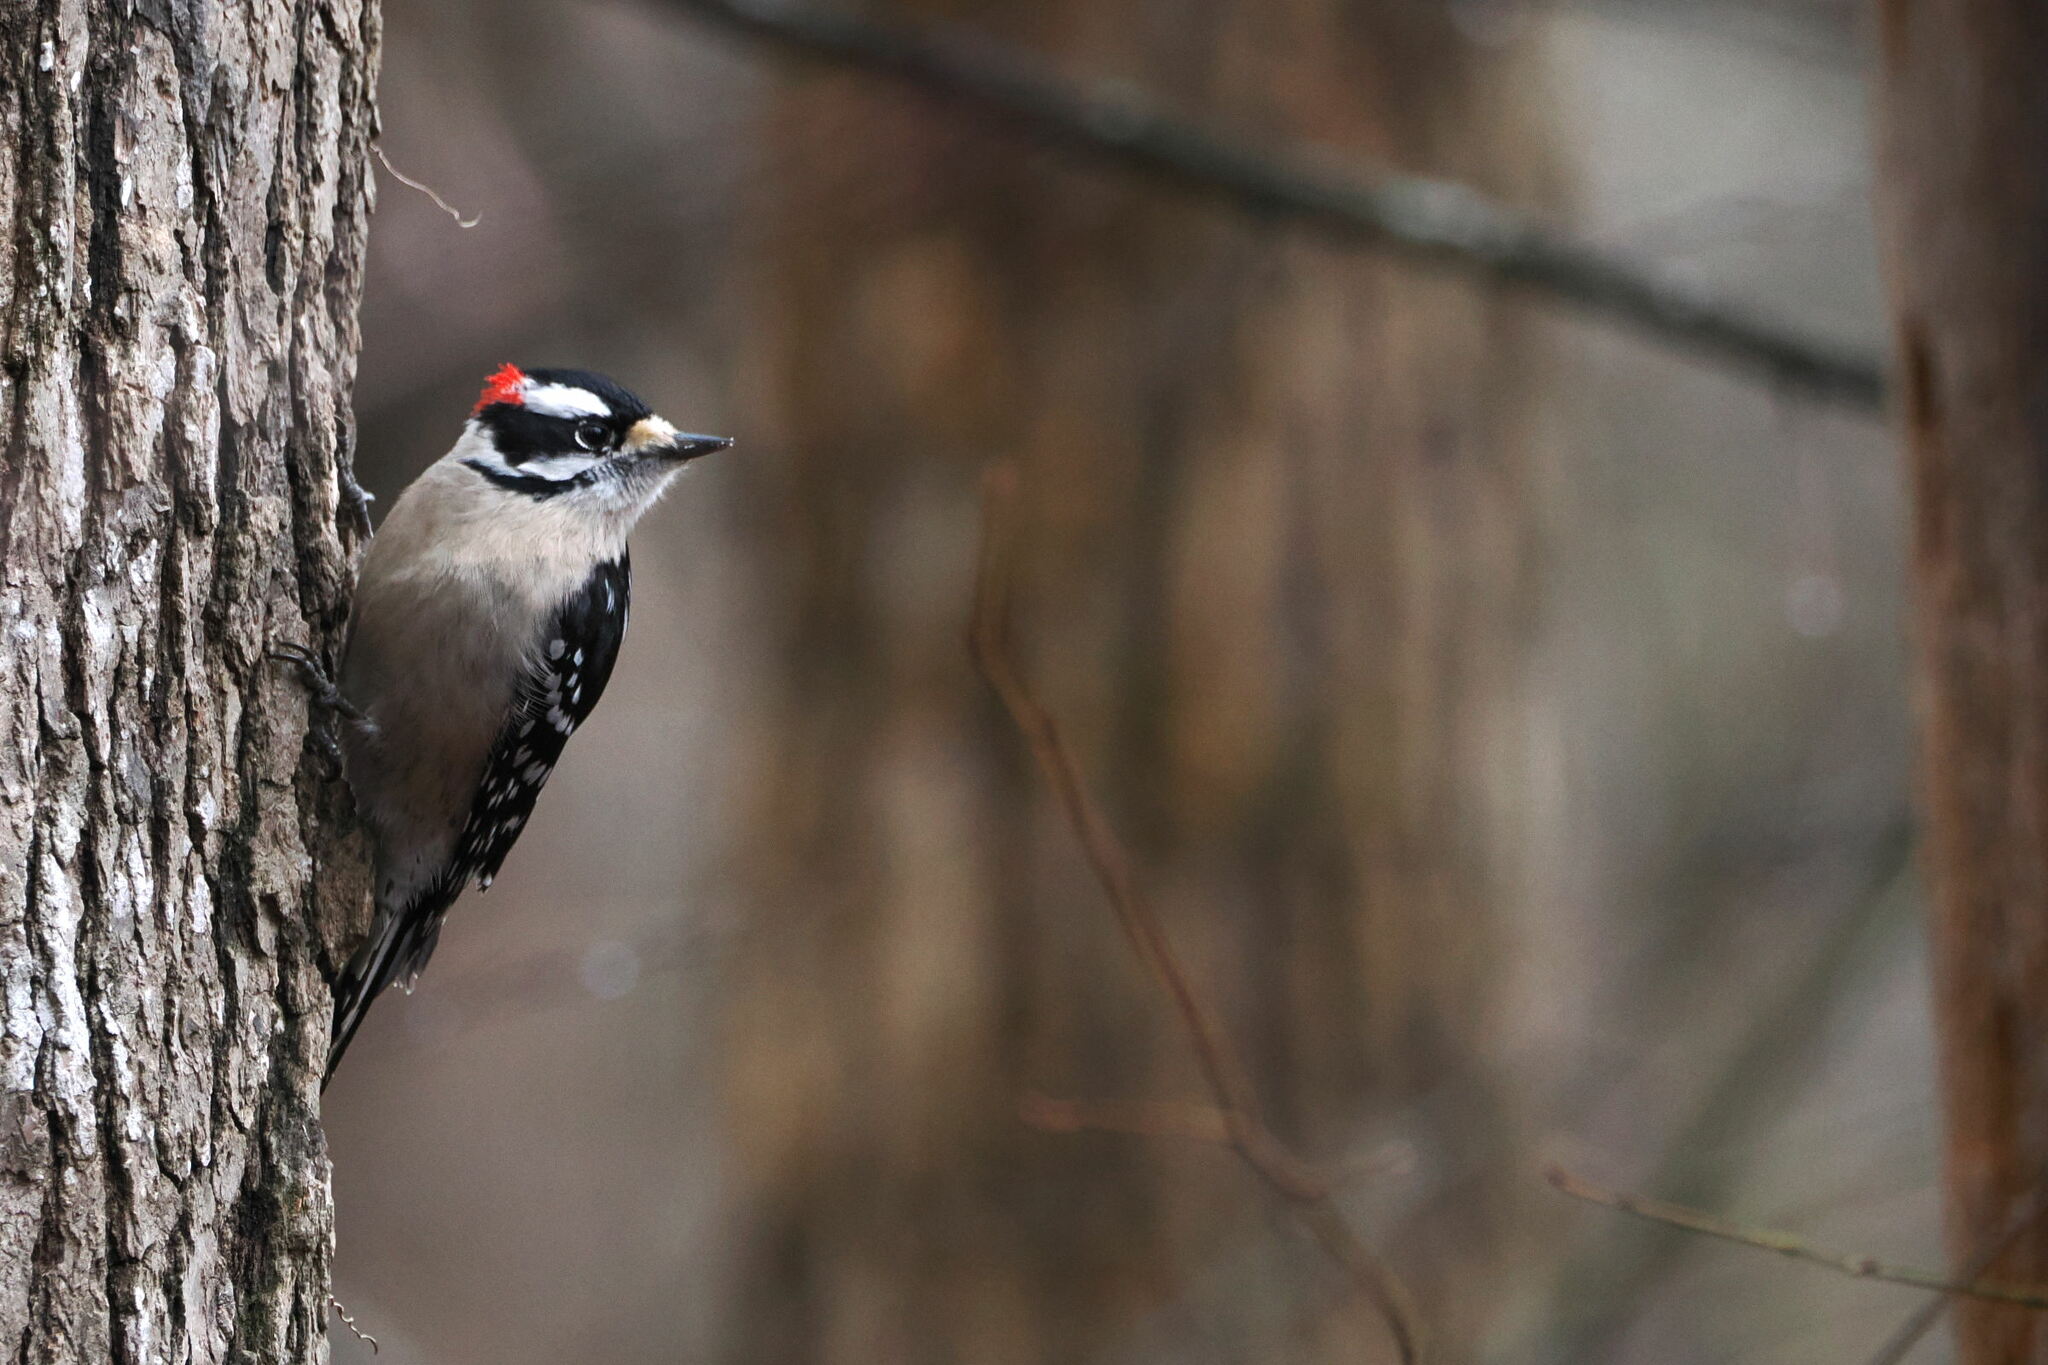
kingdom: Animalia
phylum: Chordata
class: Aves
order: Piciformes
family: Picidae
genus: Dryobates
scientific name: Dryobates pubescens
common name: Downy woodpecker
